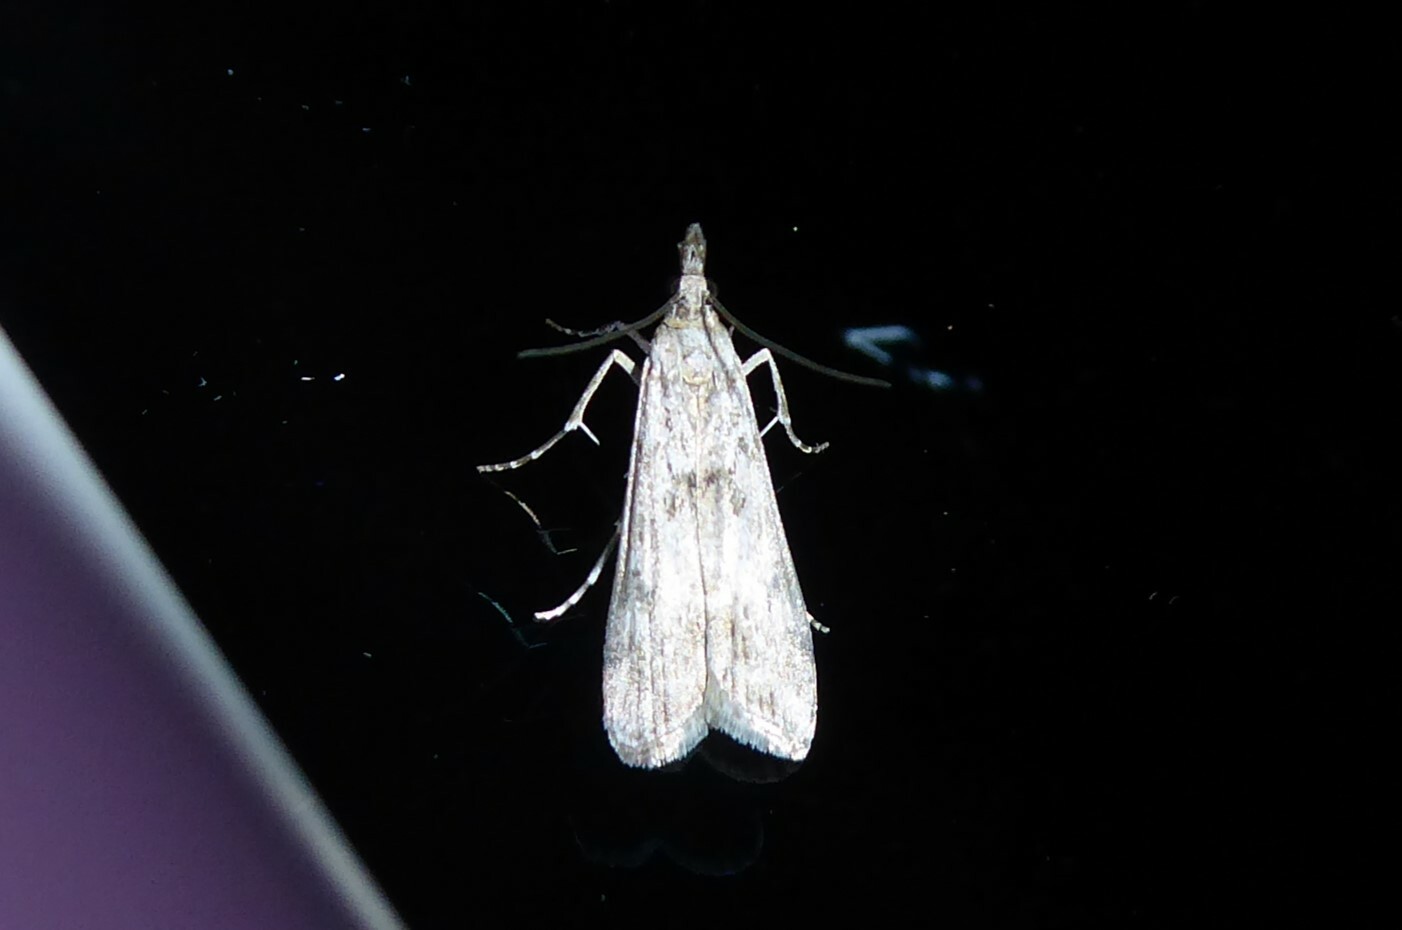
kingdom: Animalia
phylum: Arthropoda
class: Insecta
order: Lepidoptera
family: Crambidae
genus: Eudonia
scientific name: Eudonia leptalea
